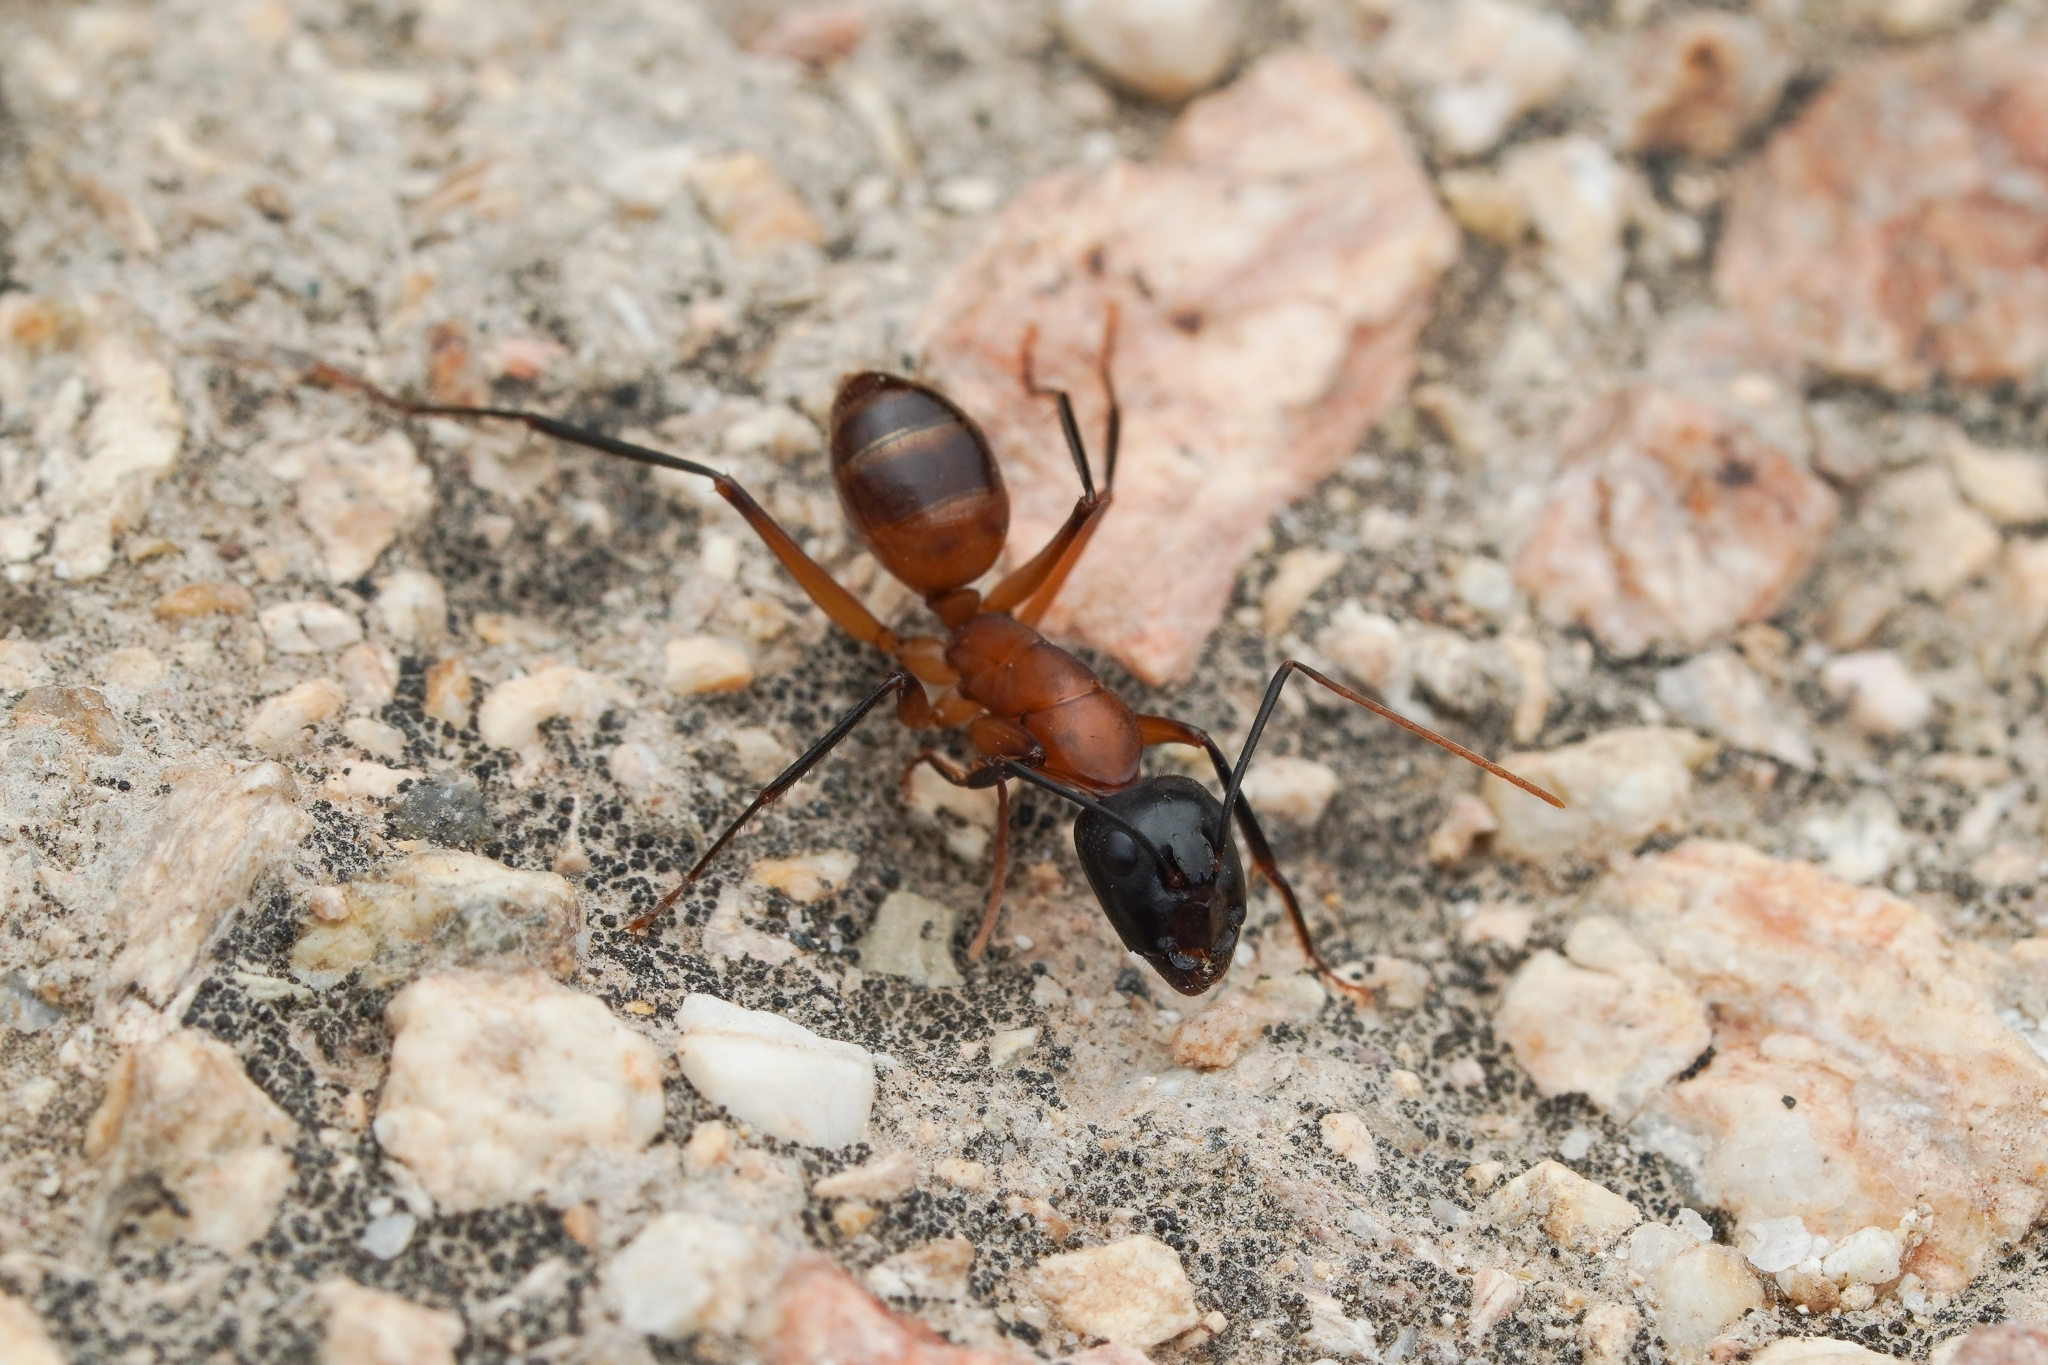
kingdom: Animalia
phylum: Arthropoda
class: Insecta
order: Hymenoptera
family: Formicidae
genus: Camponotus
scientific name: Camponotus ocreatus
